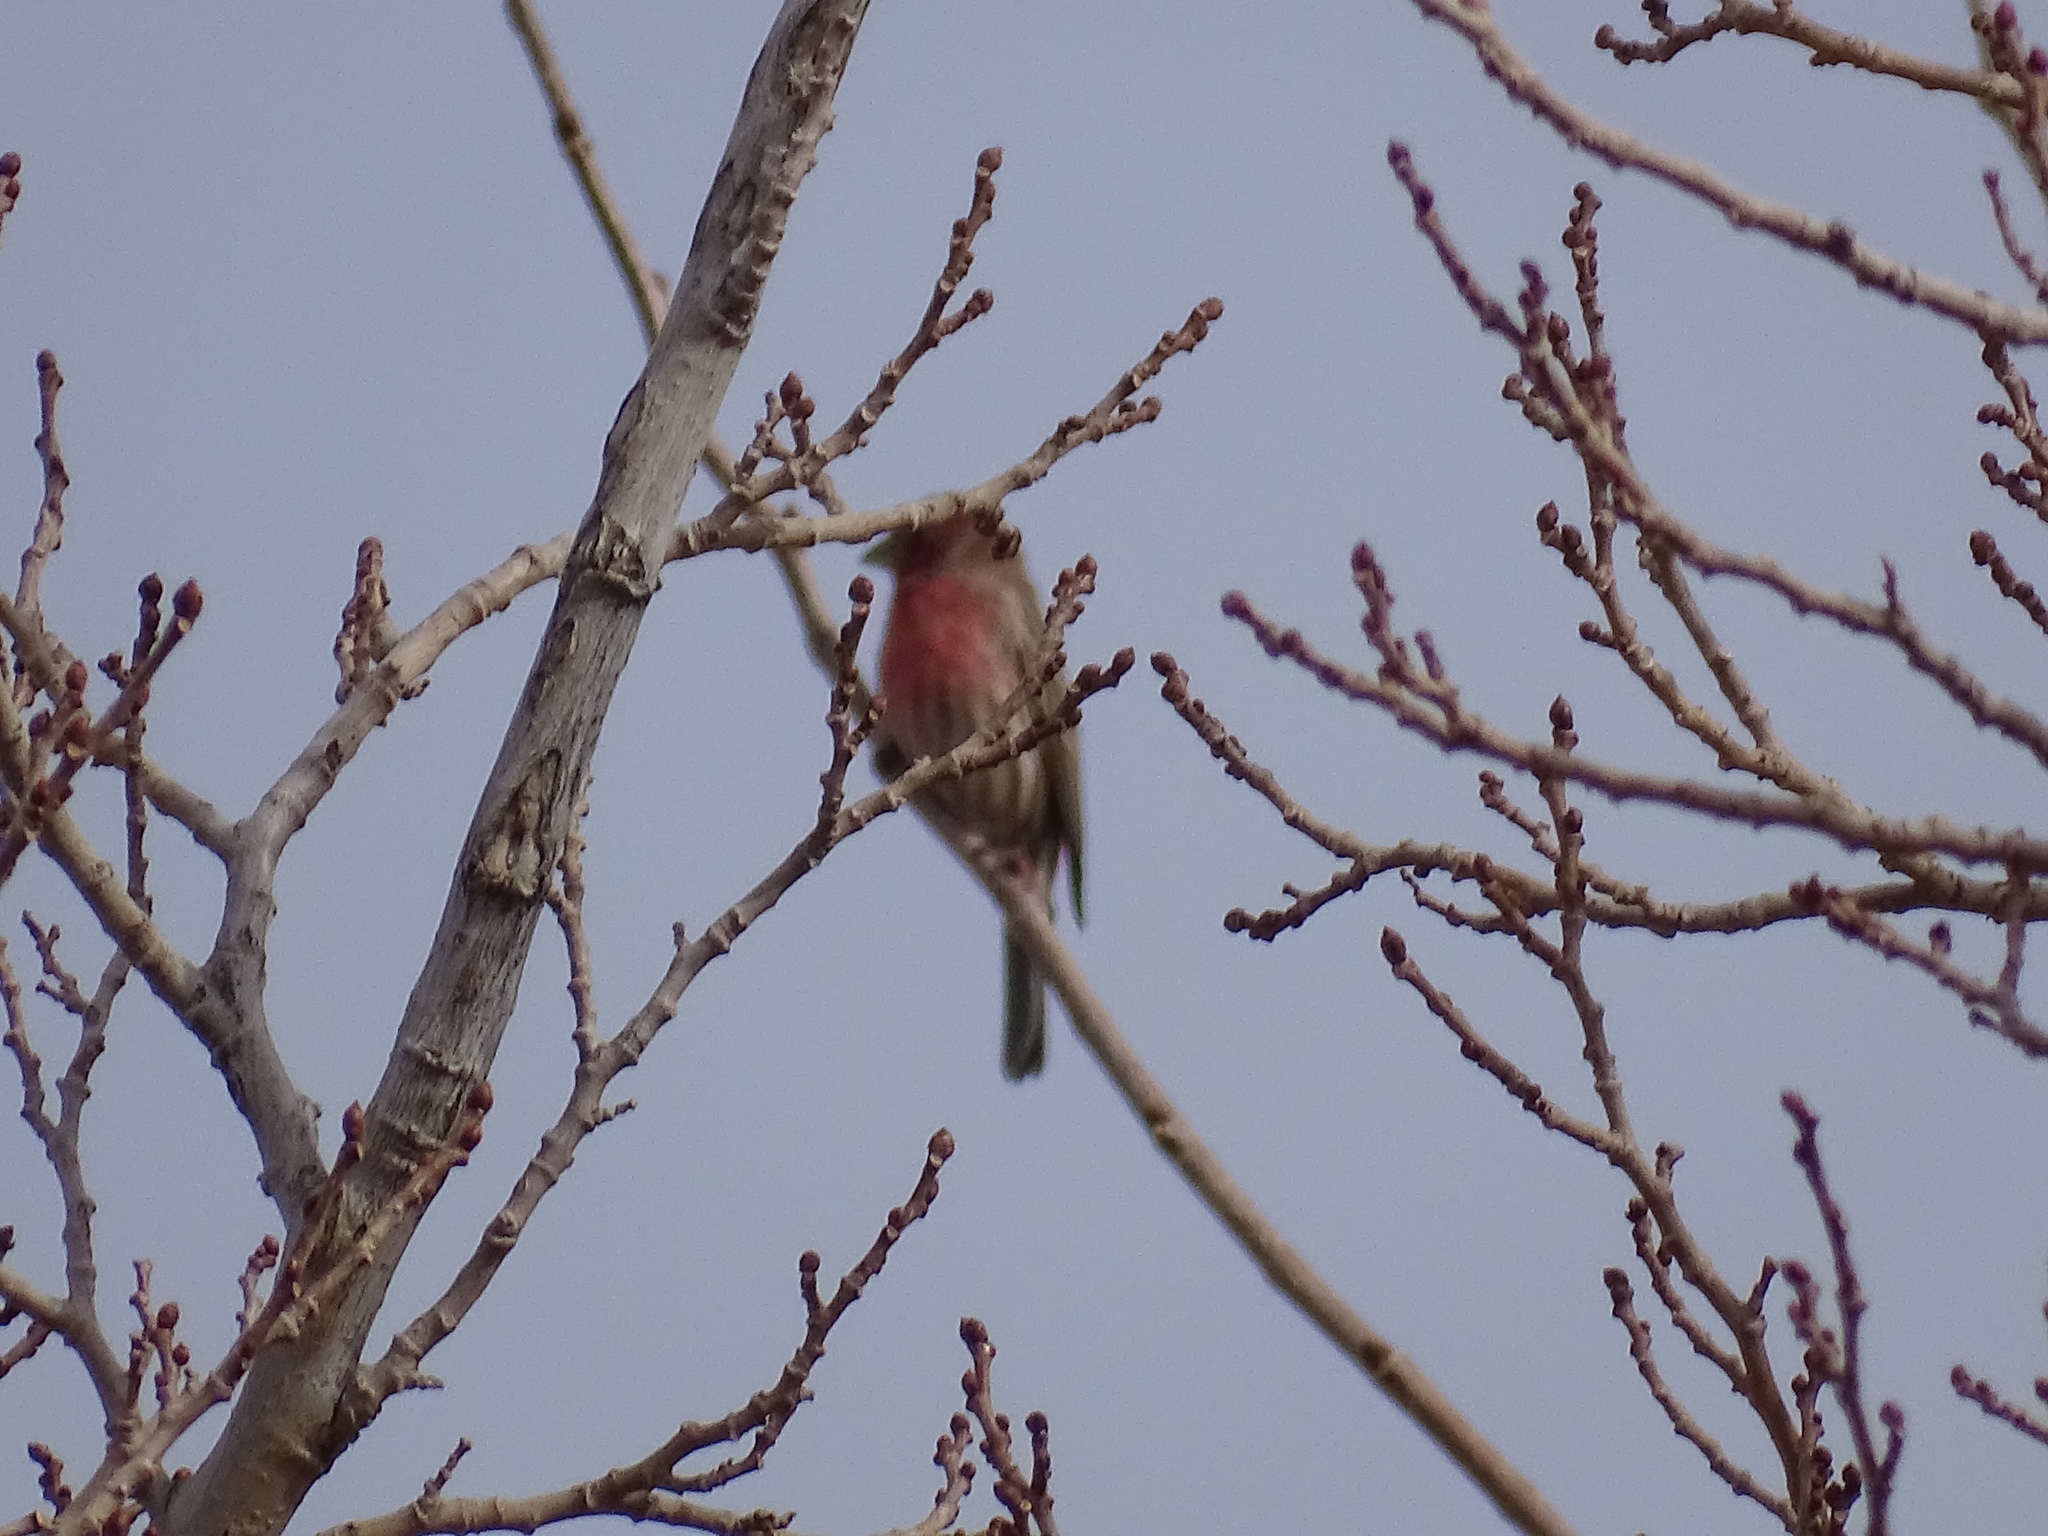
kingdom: Animalia
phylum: Chordata
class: Aves
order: Passeriformes
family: Fringillidae
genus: Haemorhous
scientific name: Haemorhous mexicanus
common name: House finch
